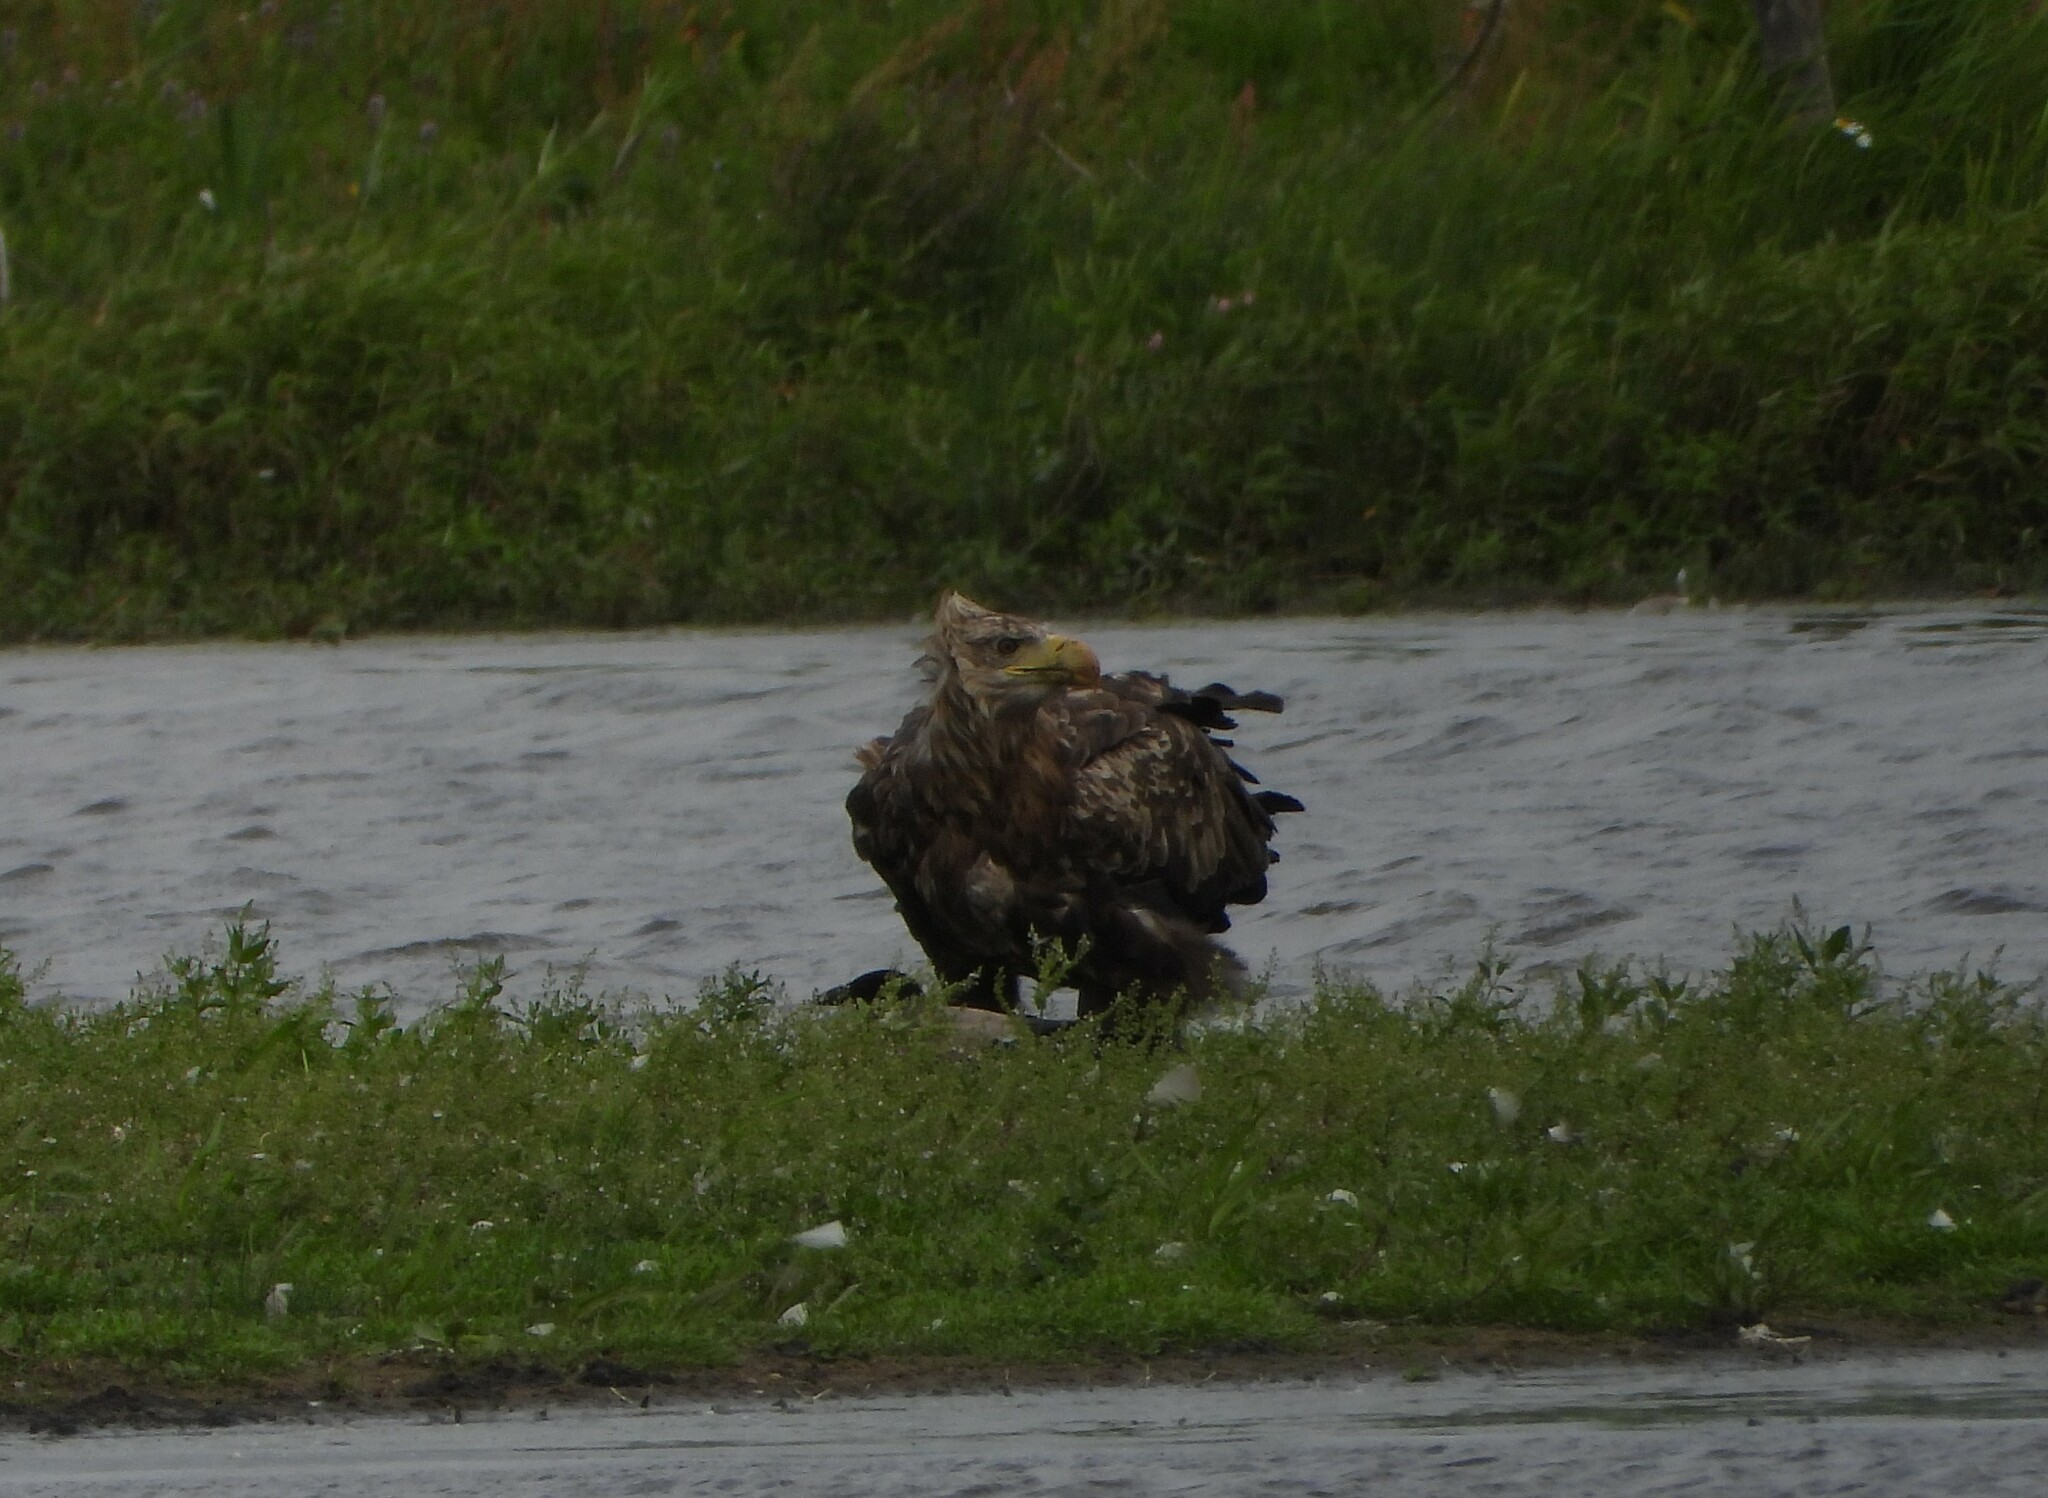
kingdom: Animalia
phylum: Chordata
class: Aves
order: Accipitriformes
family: Accipitridae
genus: Haliaeetus
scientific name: Haliaeetus albicilla
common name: White-tailed eagle
